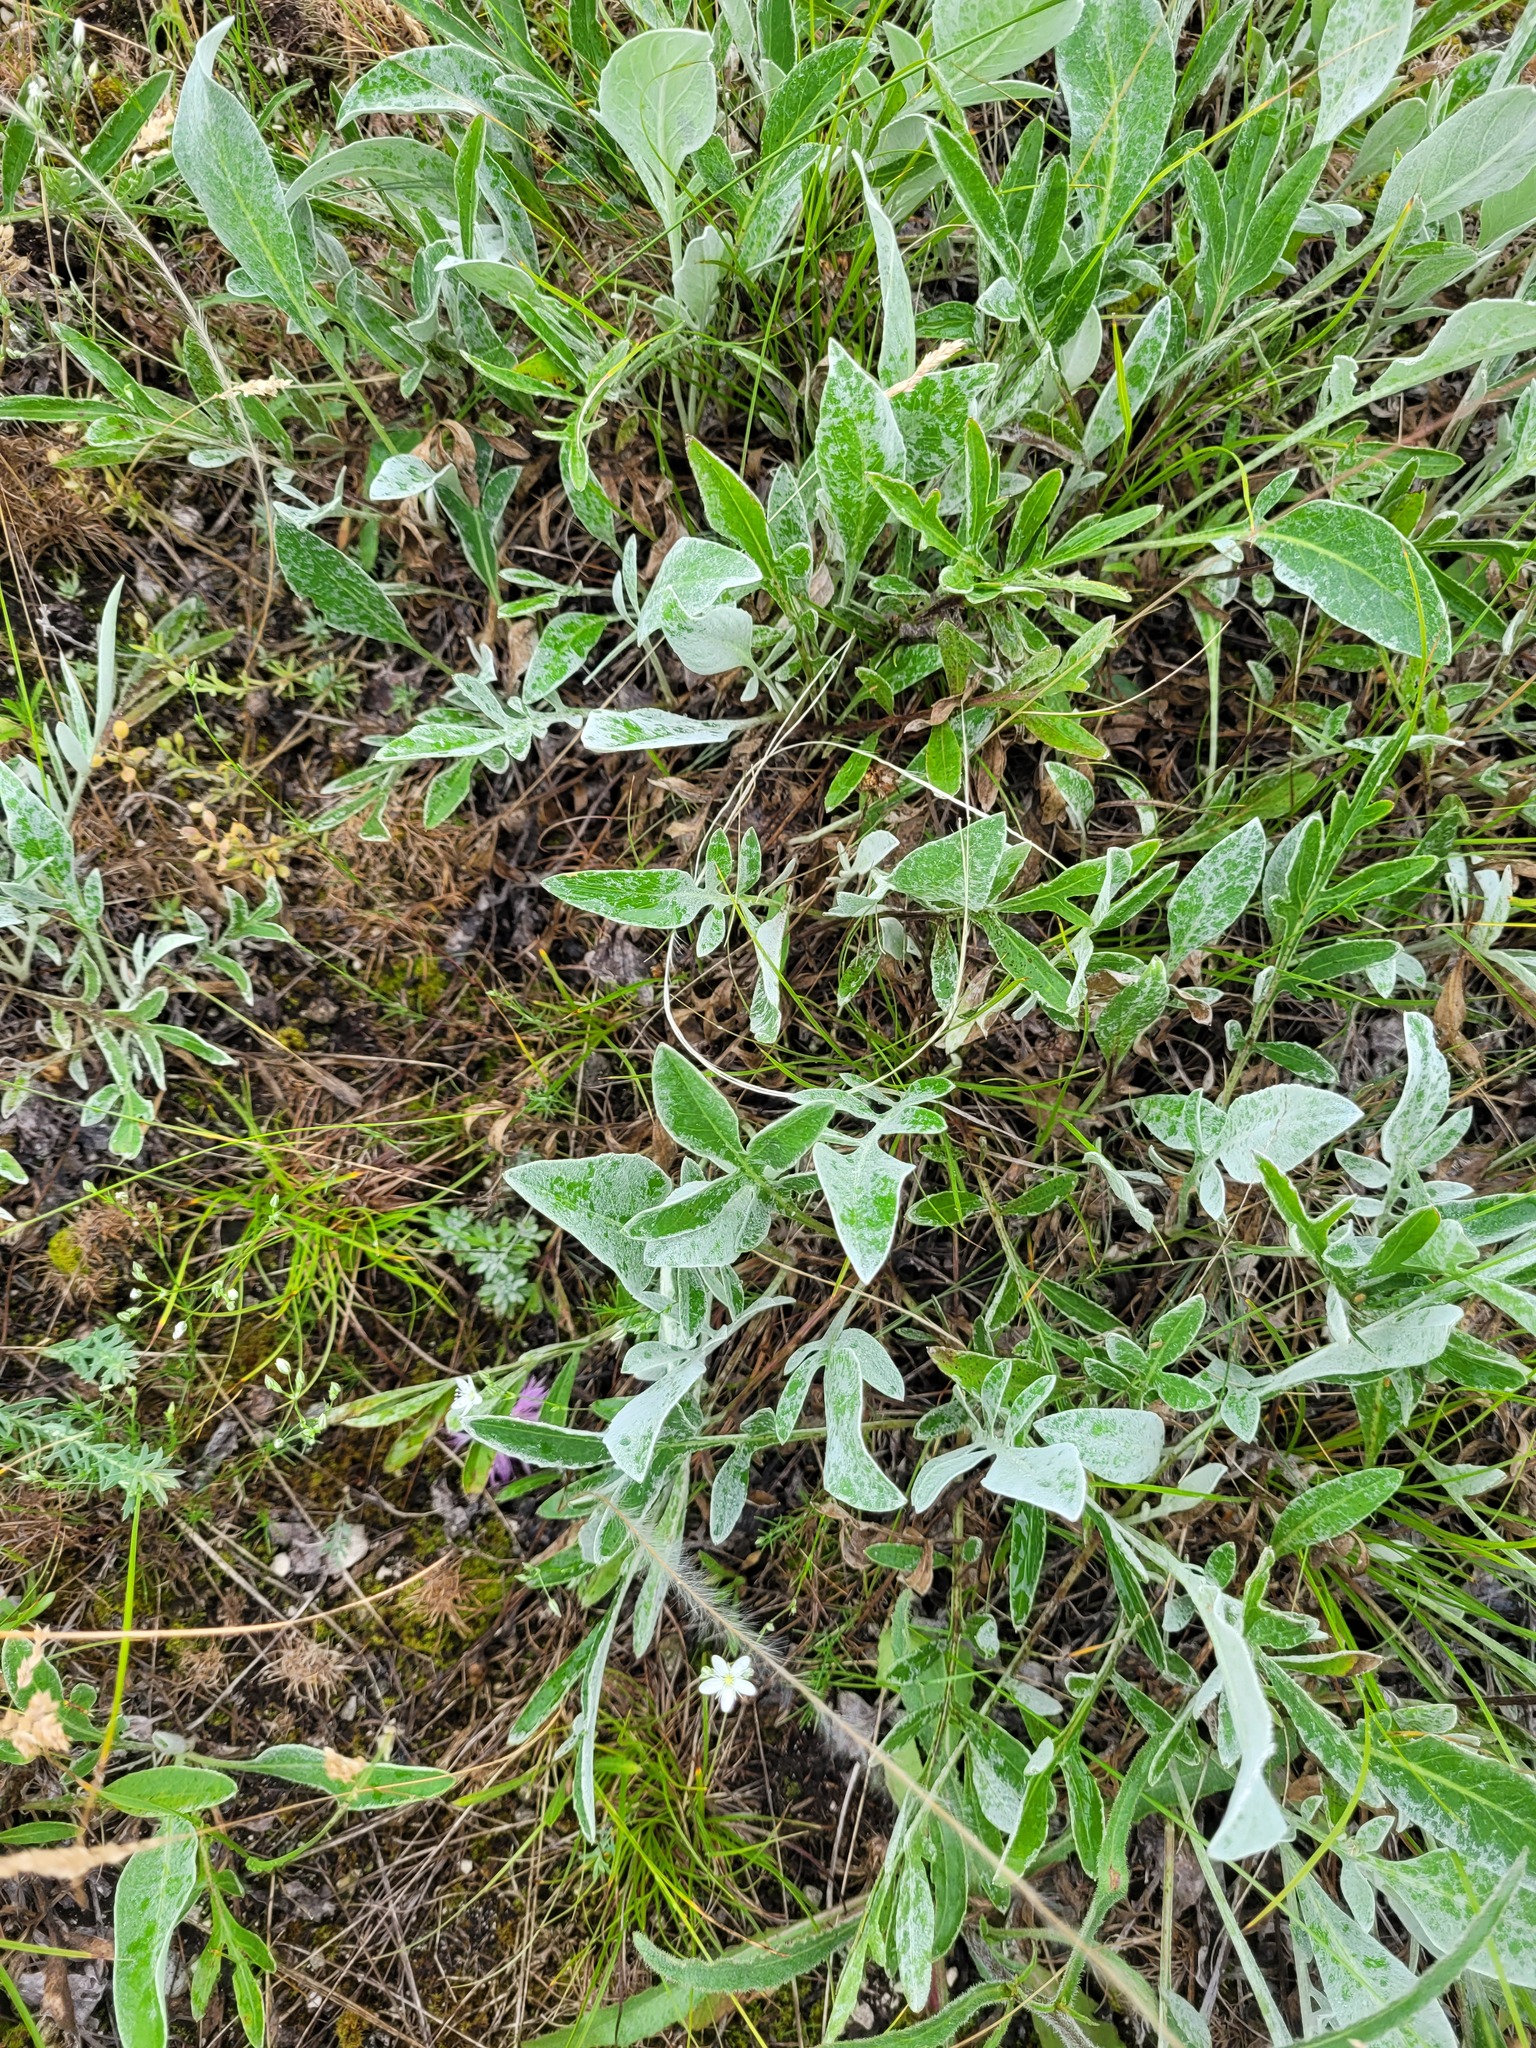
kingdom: Plantae
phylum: Tracheophyta
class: Magnoliopsida
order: Asterales
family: Asteraceae
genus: Psephellus
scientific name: Psephellus marschallianus
